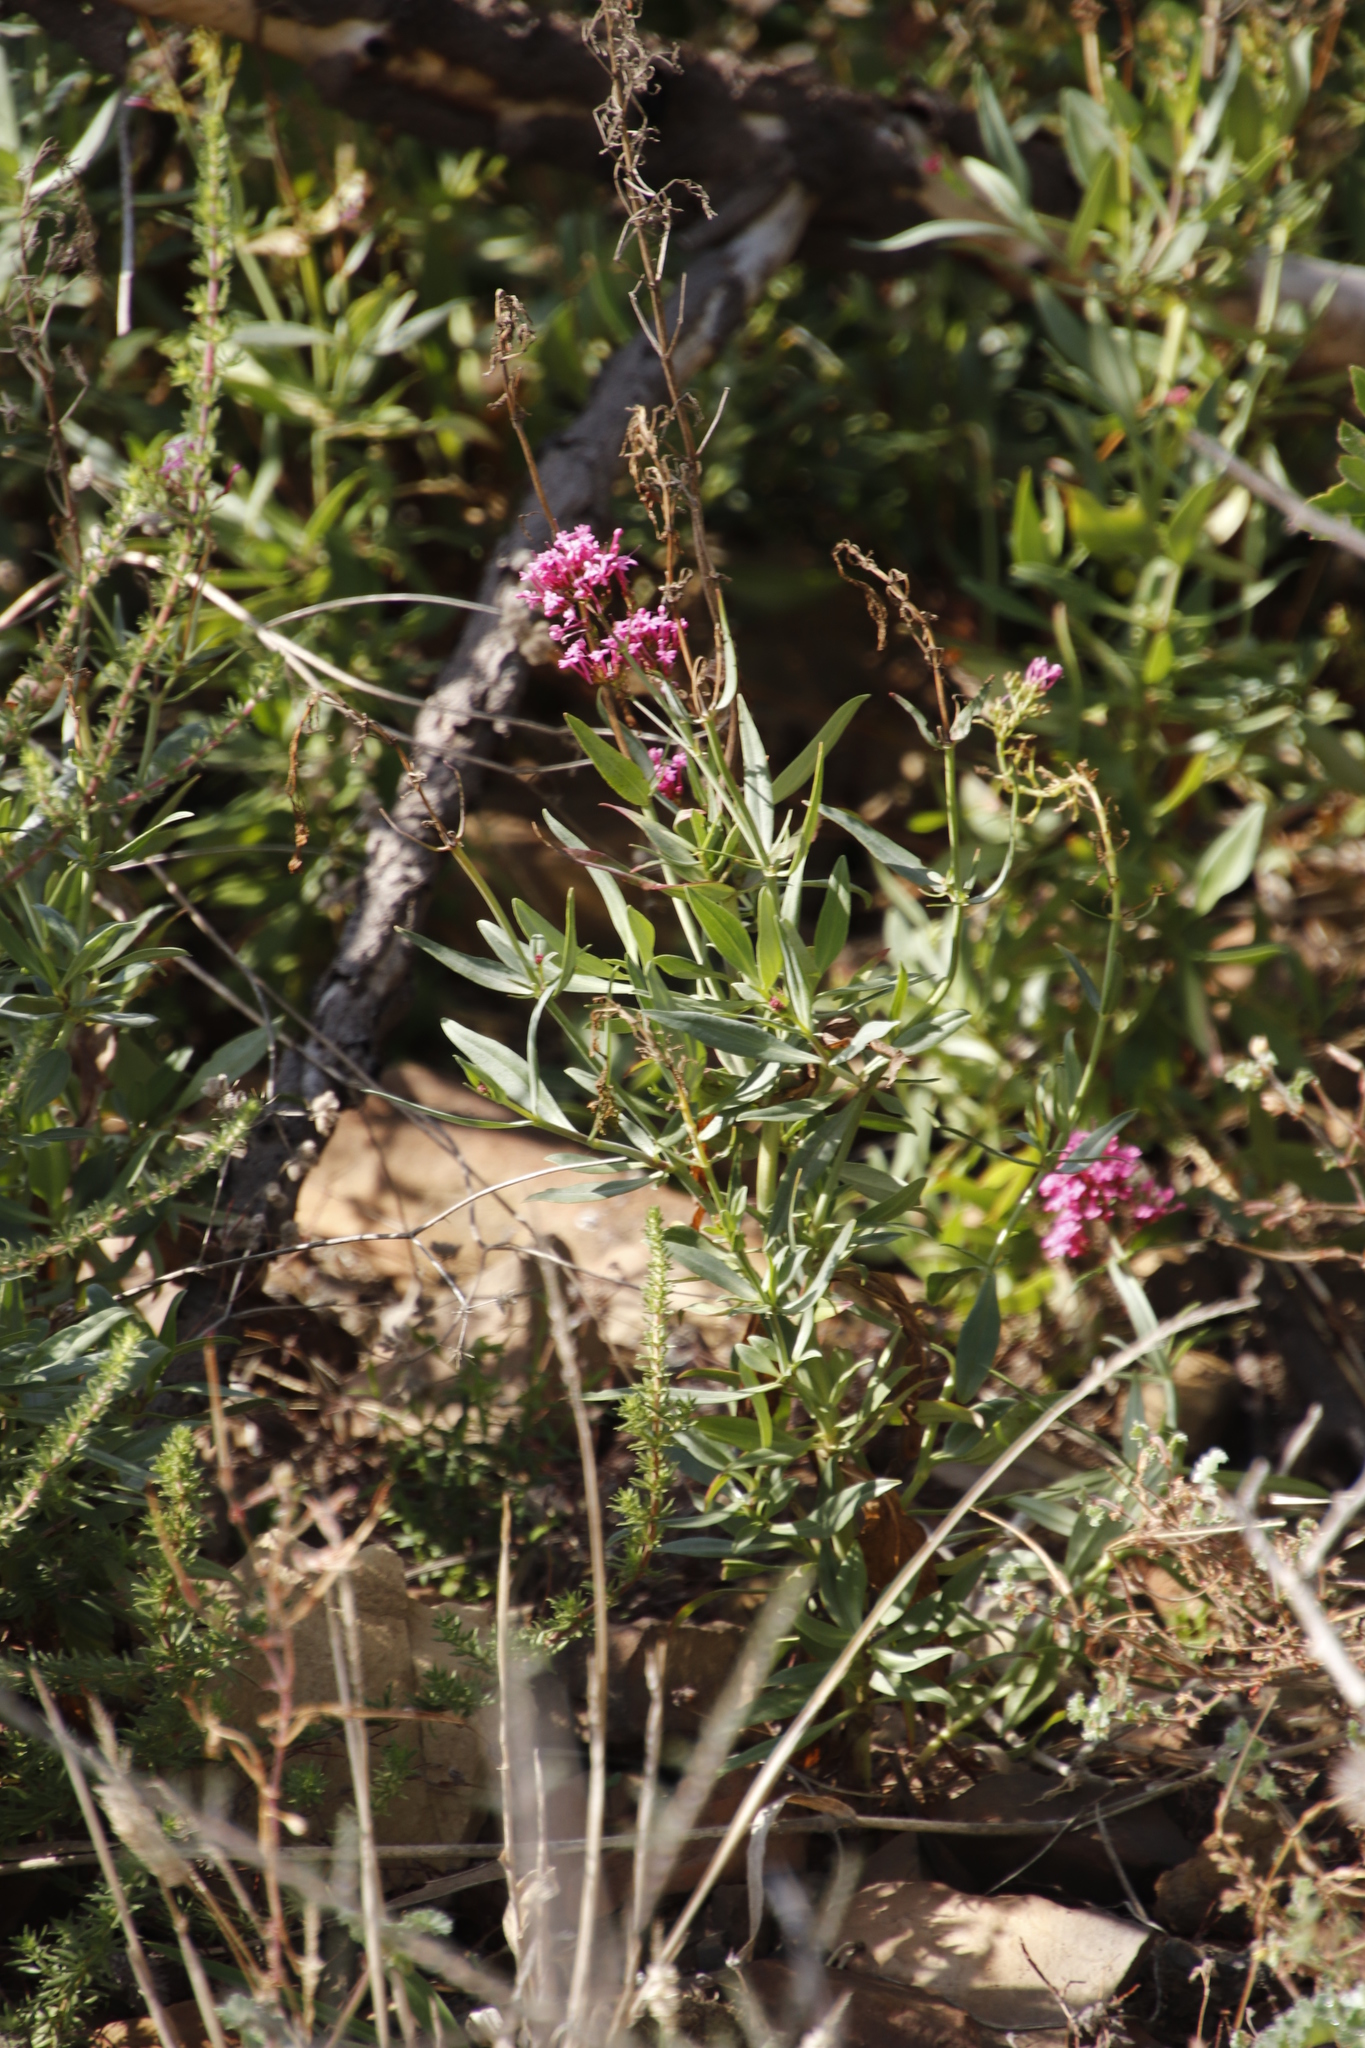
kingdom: Plantae
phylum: Tracheophyta
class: Magnoliopsida
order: Dipsacales
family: Caprifoliaceae
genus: Centranthus
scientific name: Centranthus ruber
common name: Red valerian
